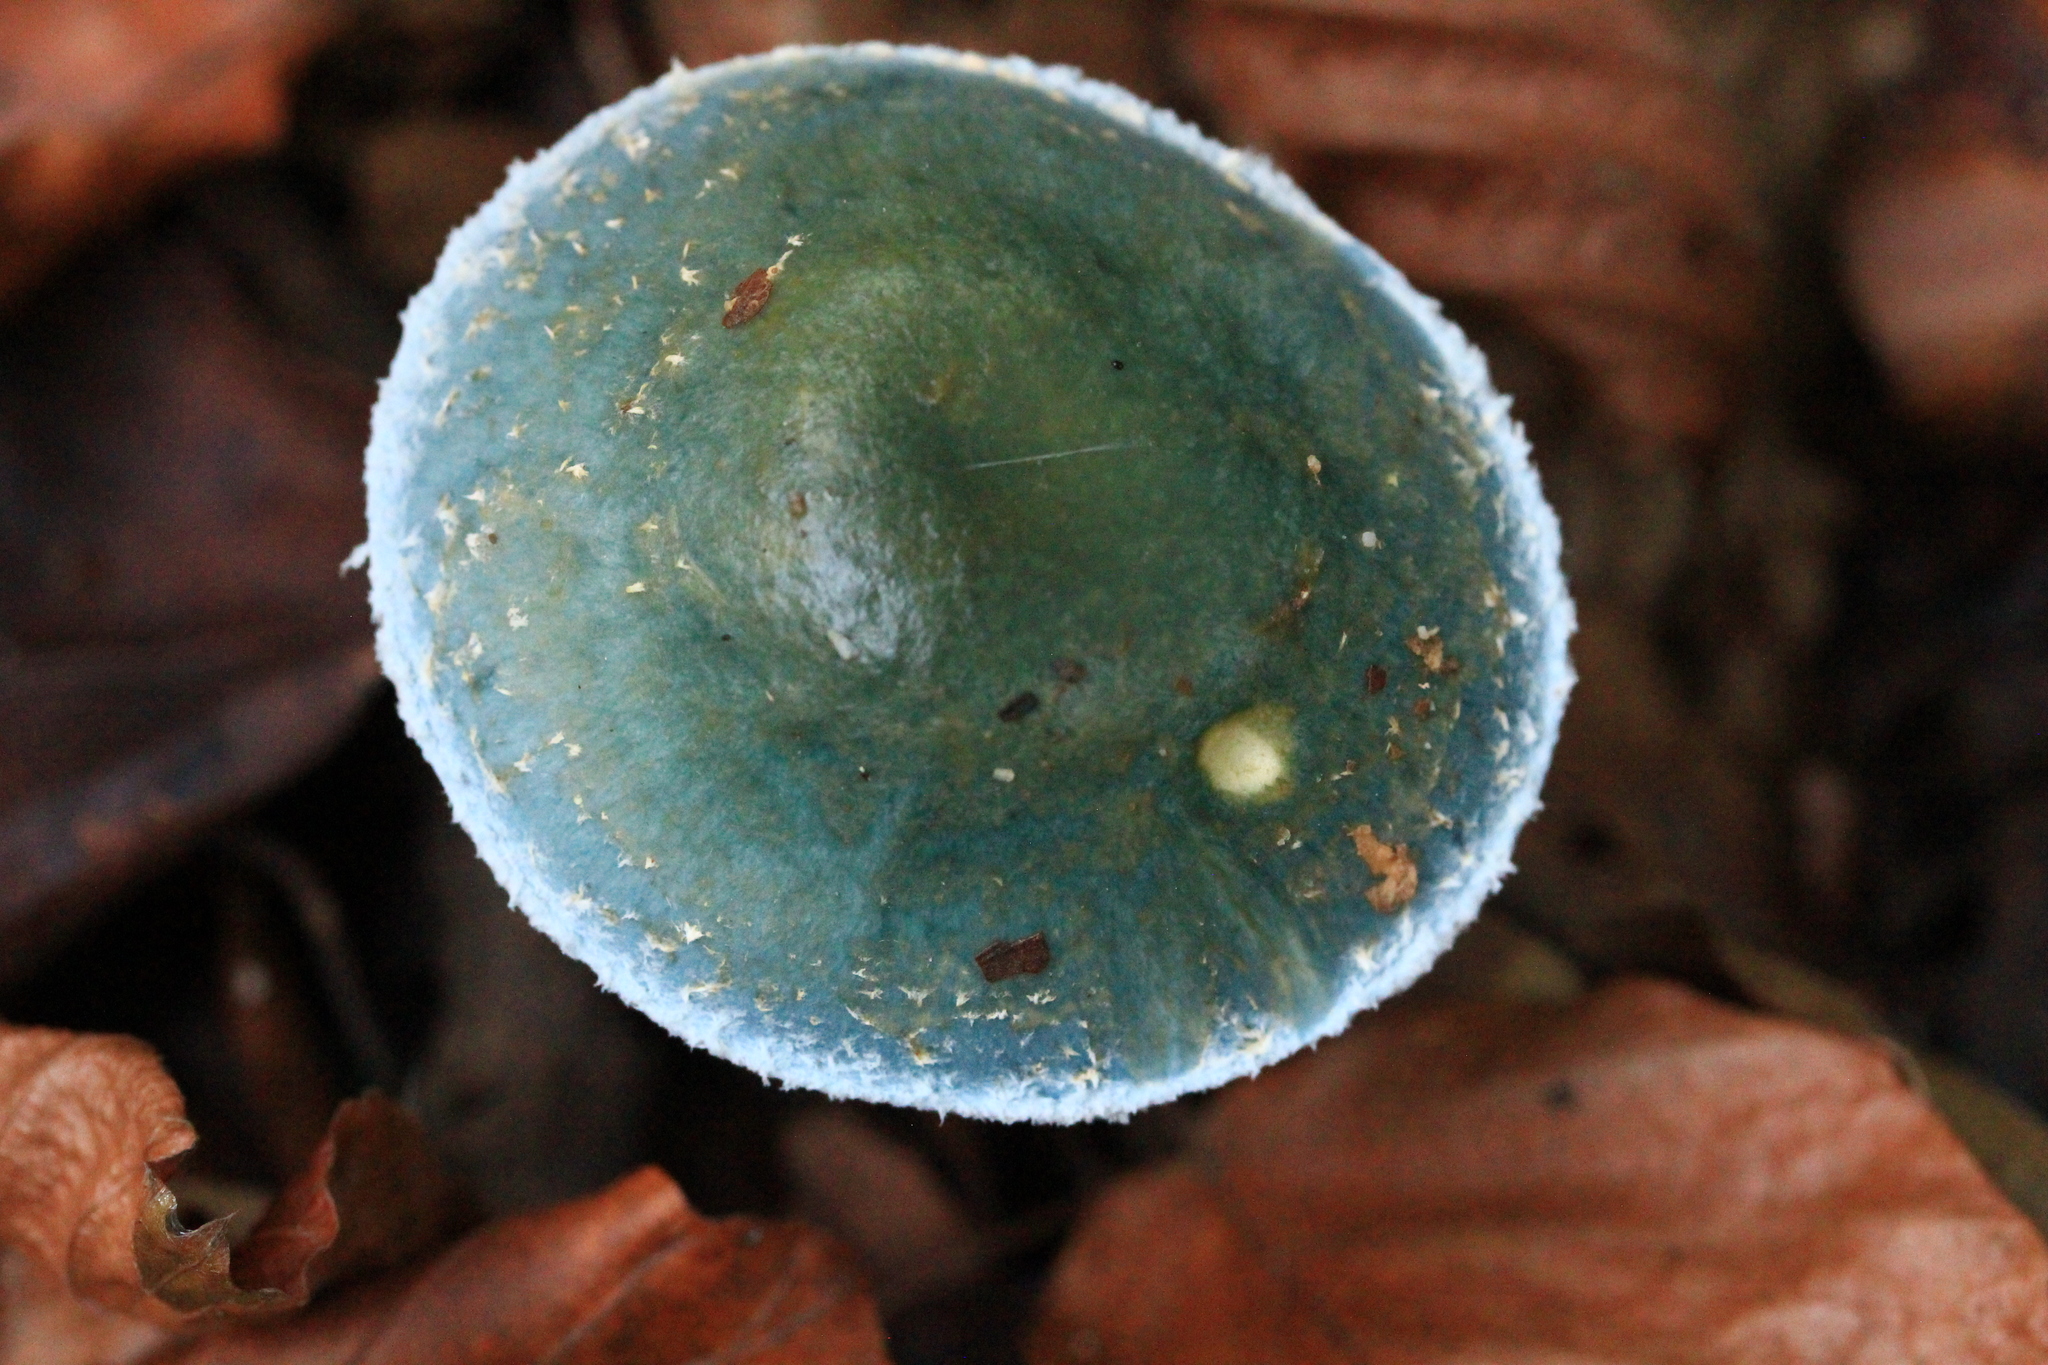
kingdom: Fungi
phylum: Basidiomycota
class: Agaricomycetes
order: Agaricales
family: Strophariaceae
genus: Stropharia
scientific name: Stropharia aeruginosa
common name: Verdigris roundhead
